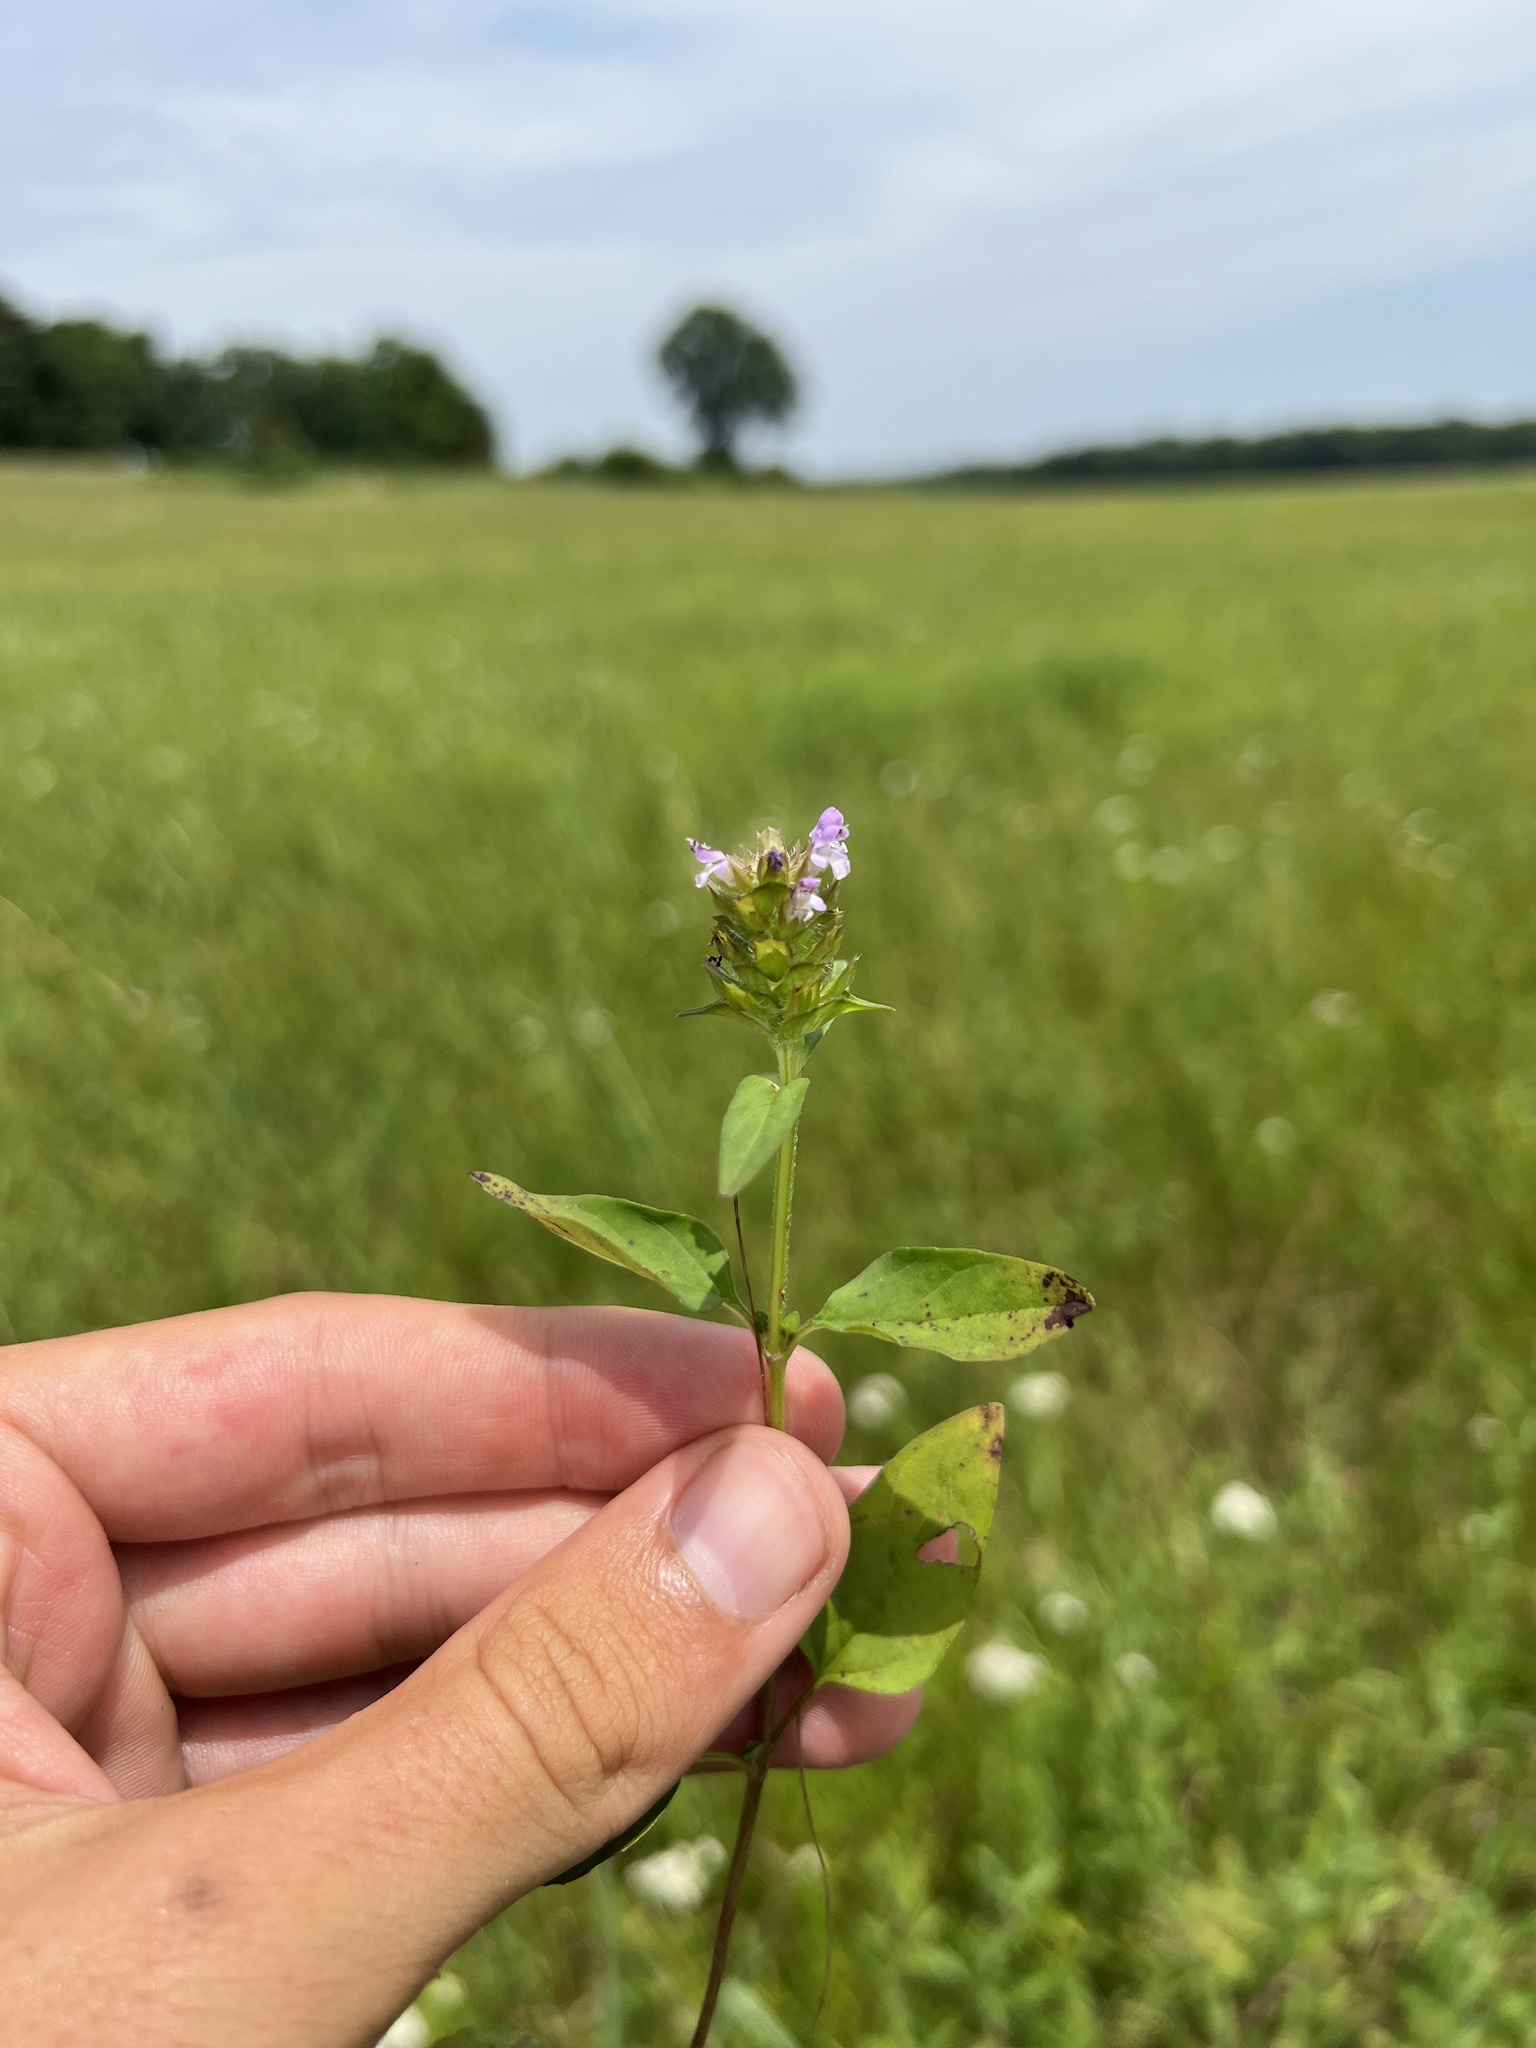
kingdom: Plantae
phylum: Tracheophyta
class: Magnoliopsida
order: Lamiales
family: Lamiaceae
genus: Prunella
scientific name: Prunella vulgaris
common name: Heal-all
